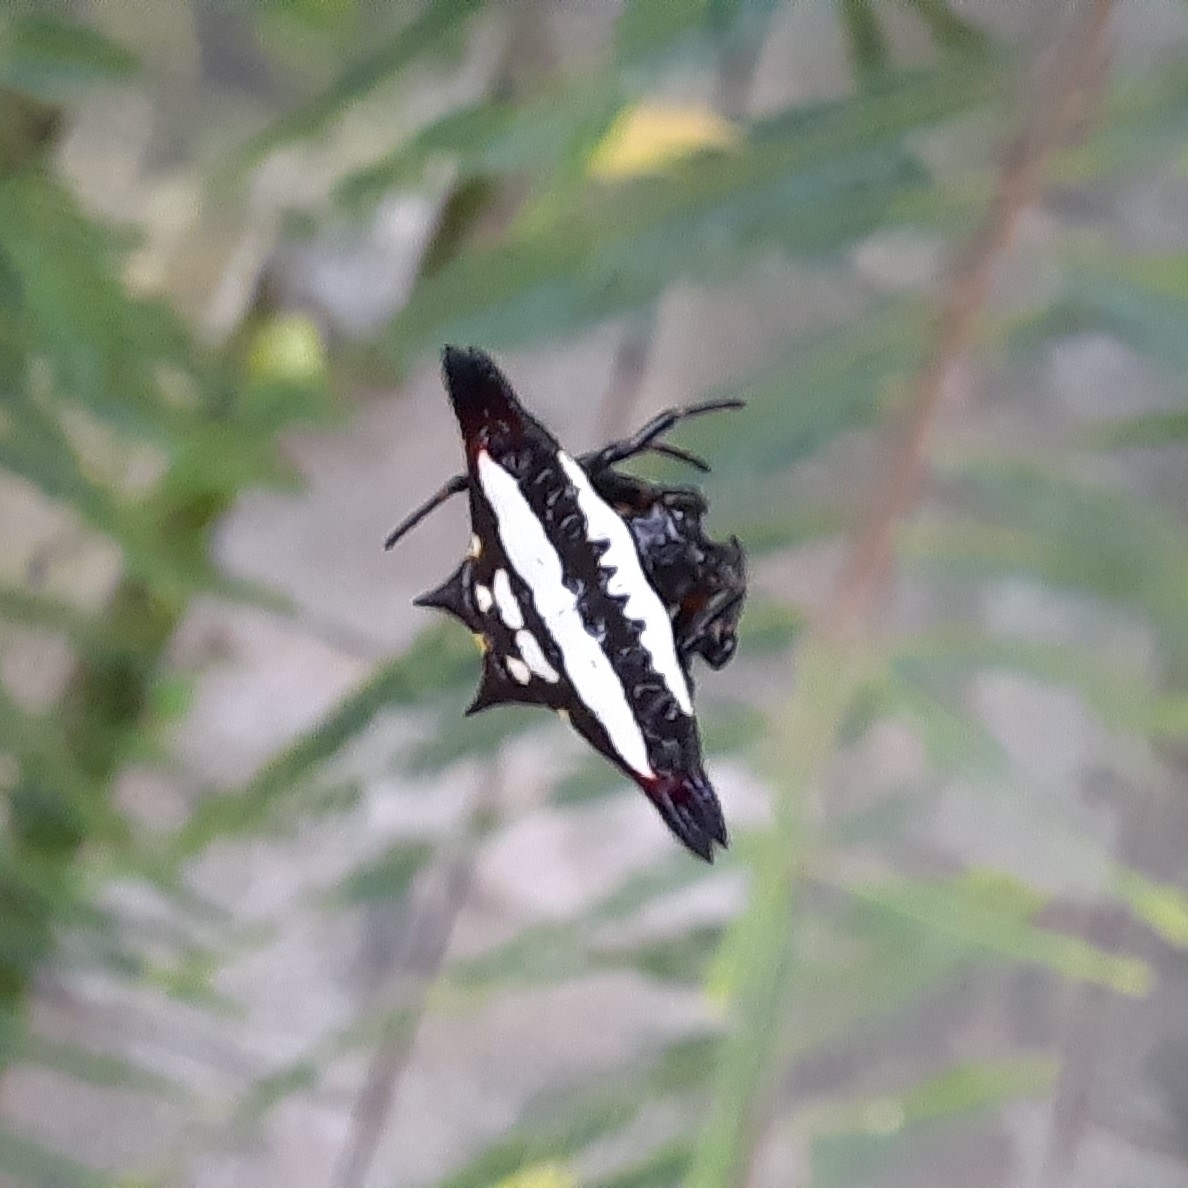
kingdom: Animalia
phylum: Arthropoda
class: Arachnida
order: Araneae
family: Araneidae
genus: Gasteracantha
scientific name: Gasteracantha geminata
